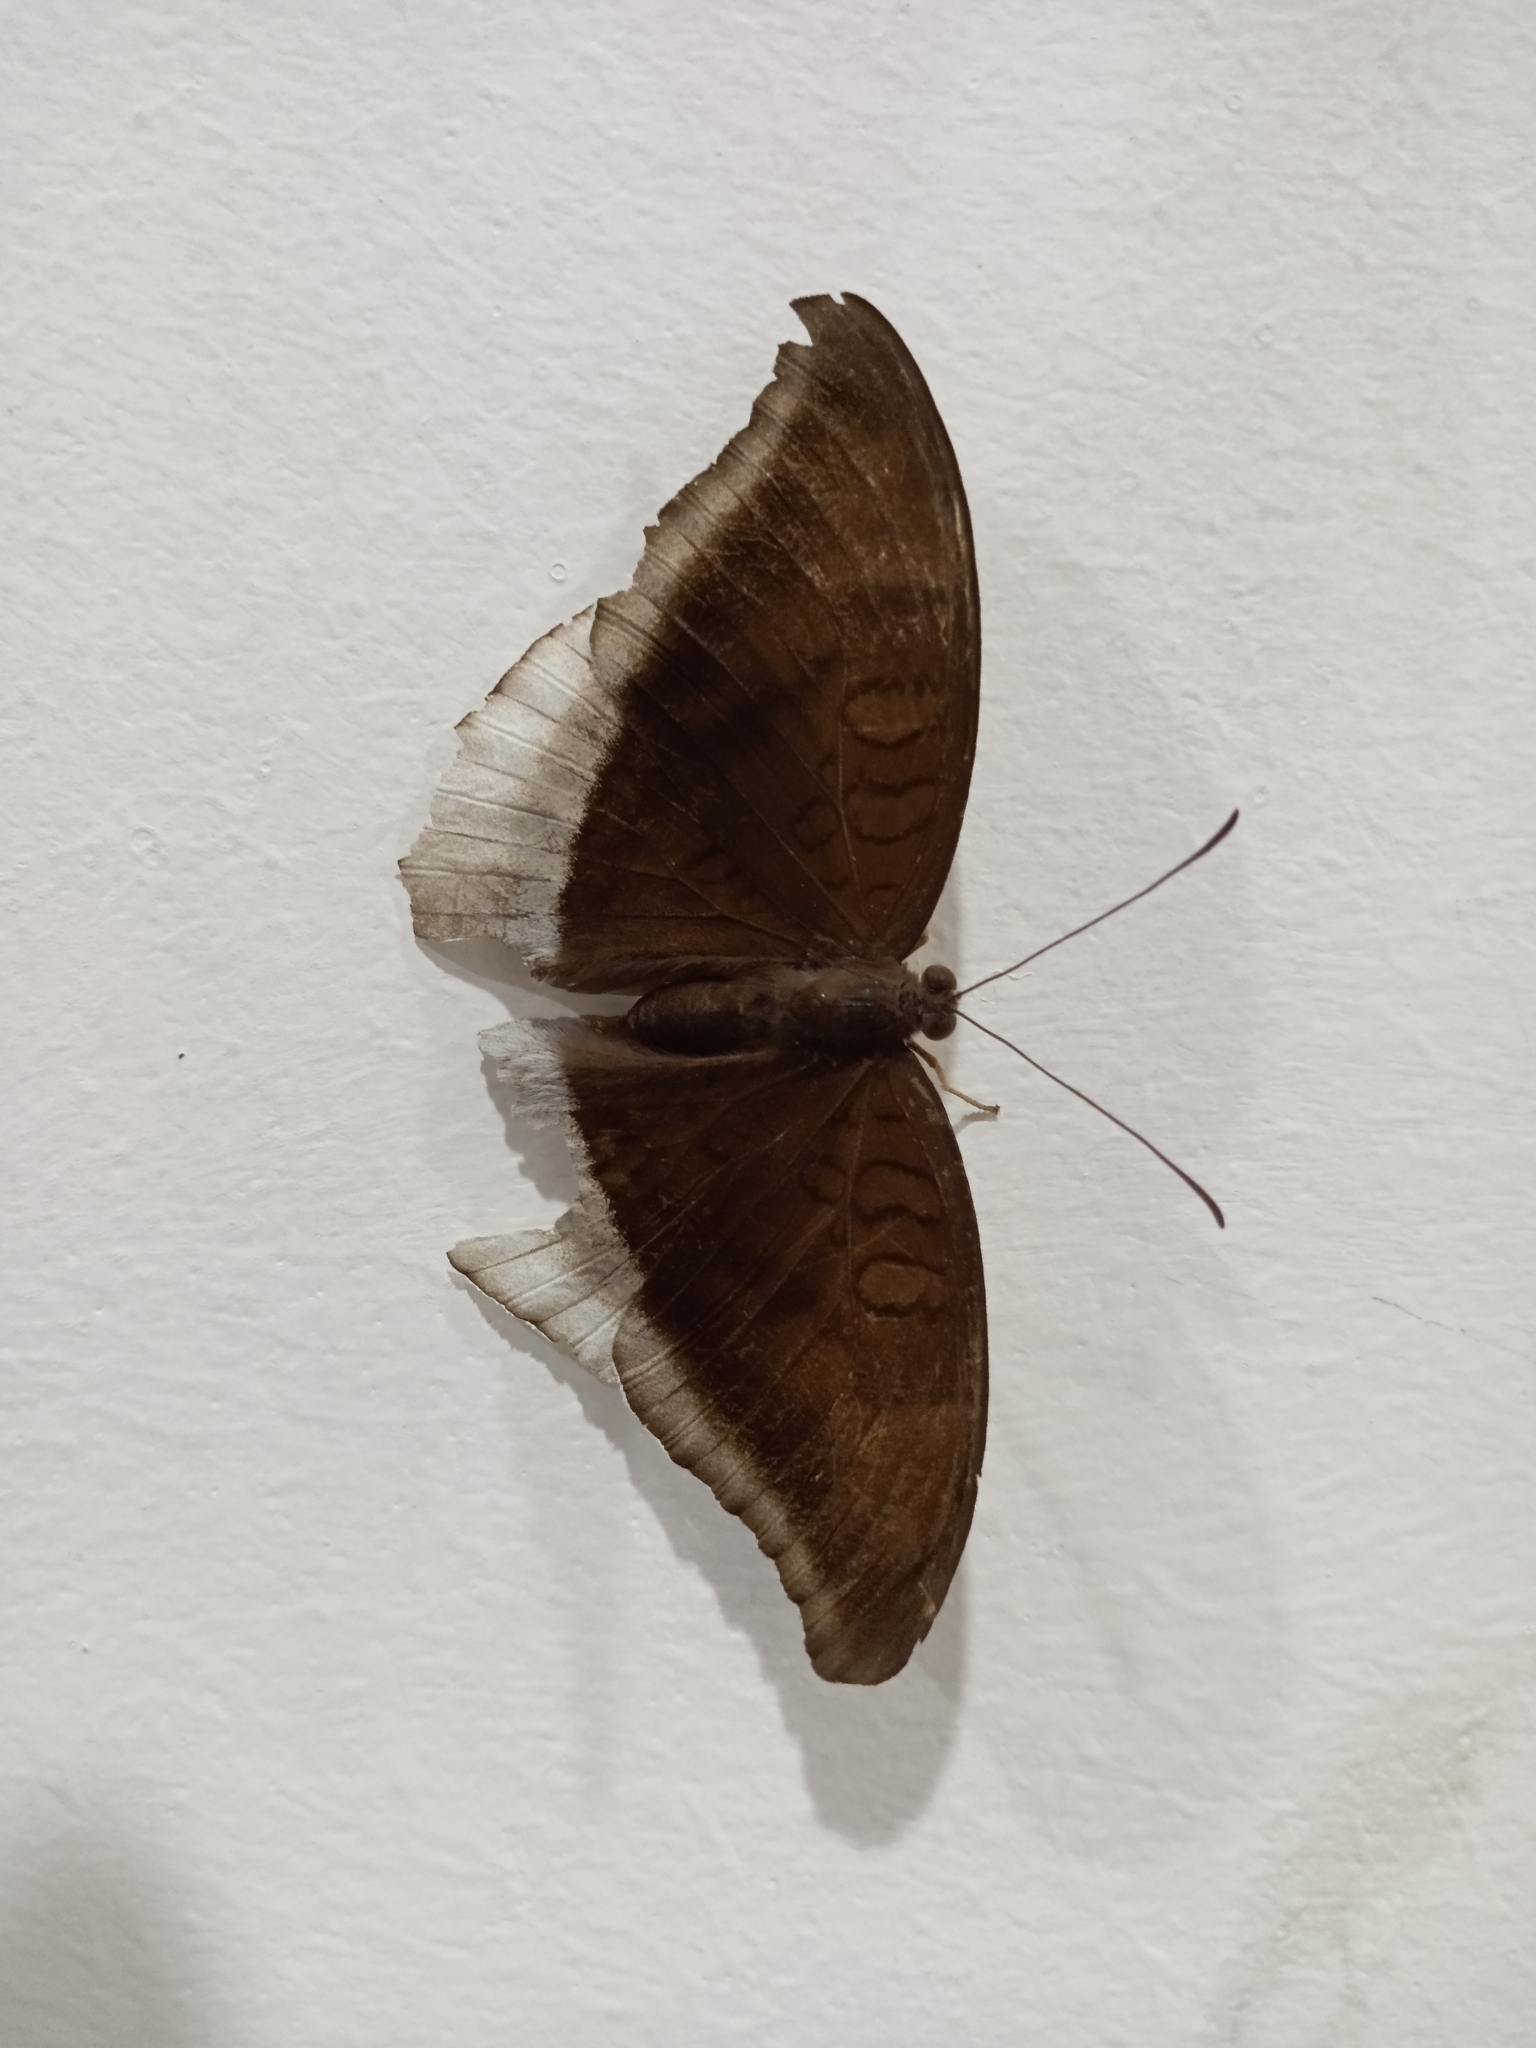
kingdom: Animalia
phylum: Arthropoda
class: Insecta
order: Lepidoptera
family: Nymphalidae
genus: Tanaecia
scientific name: Tanaecia lepidea
